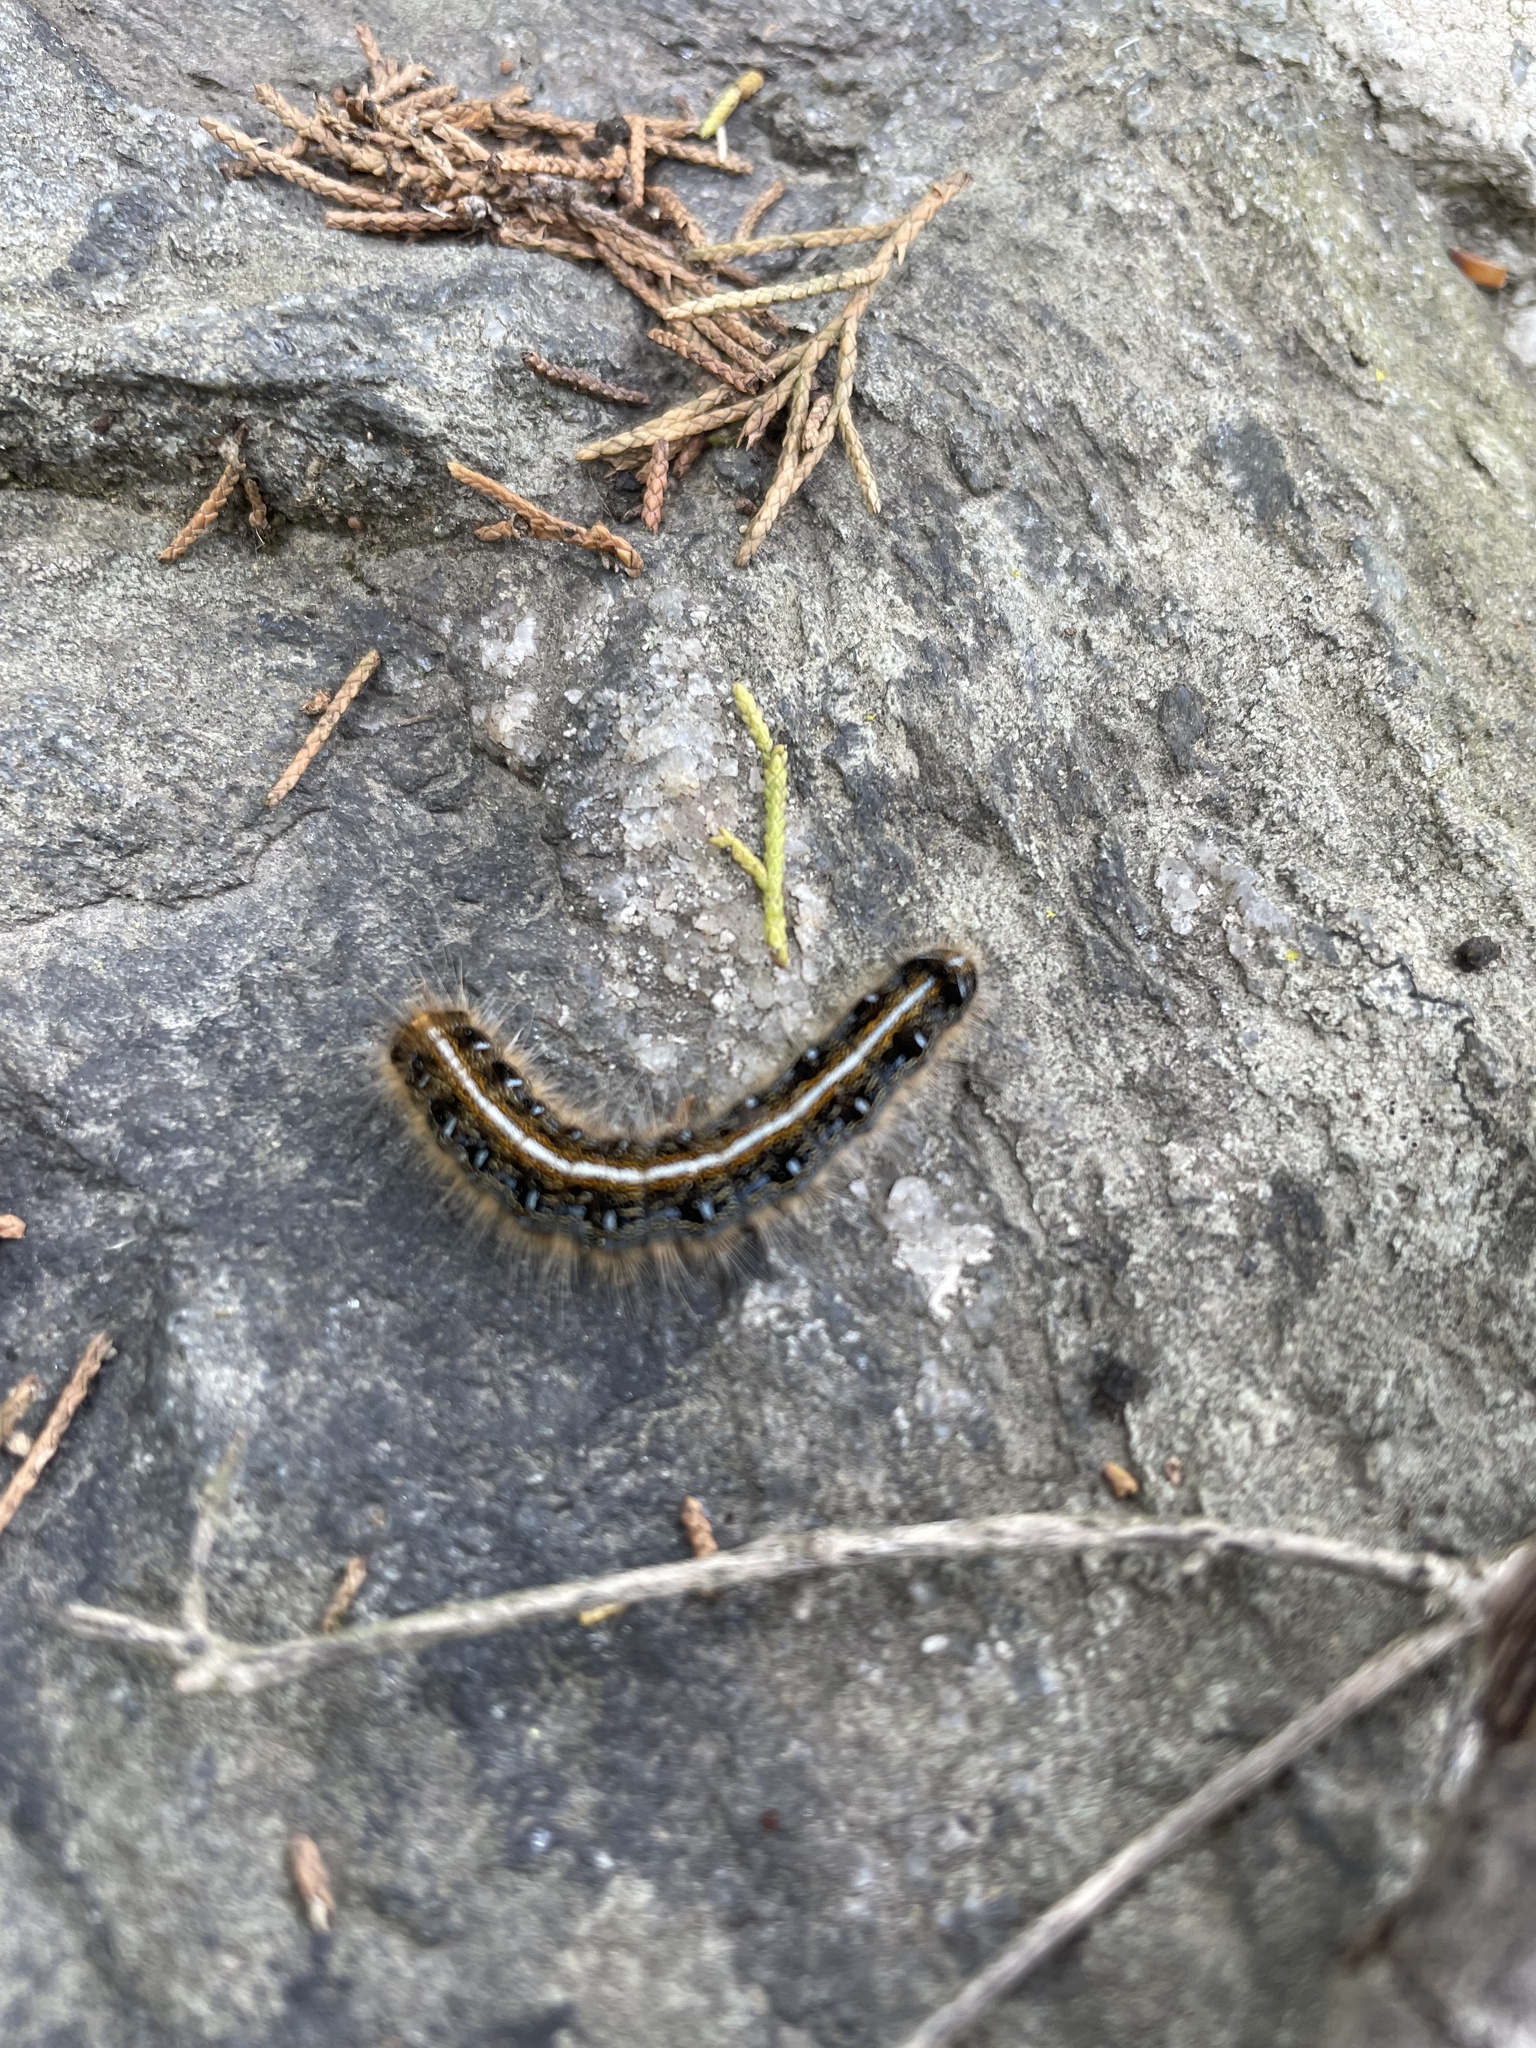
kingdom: Animalia
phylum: Arthropoda
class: Insecta
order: Lepidoptera
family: Lasiocampidae
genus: Malacosoma
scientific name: Malacosoma americana
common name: Eastern tent caterpillar moth
